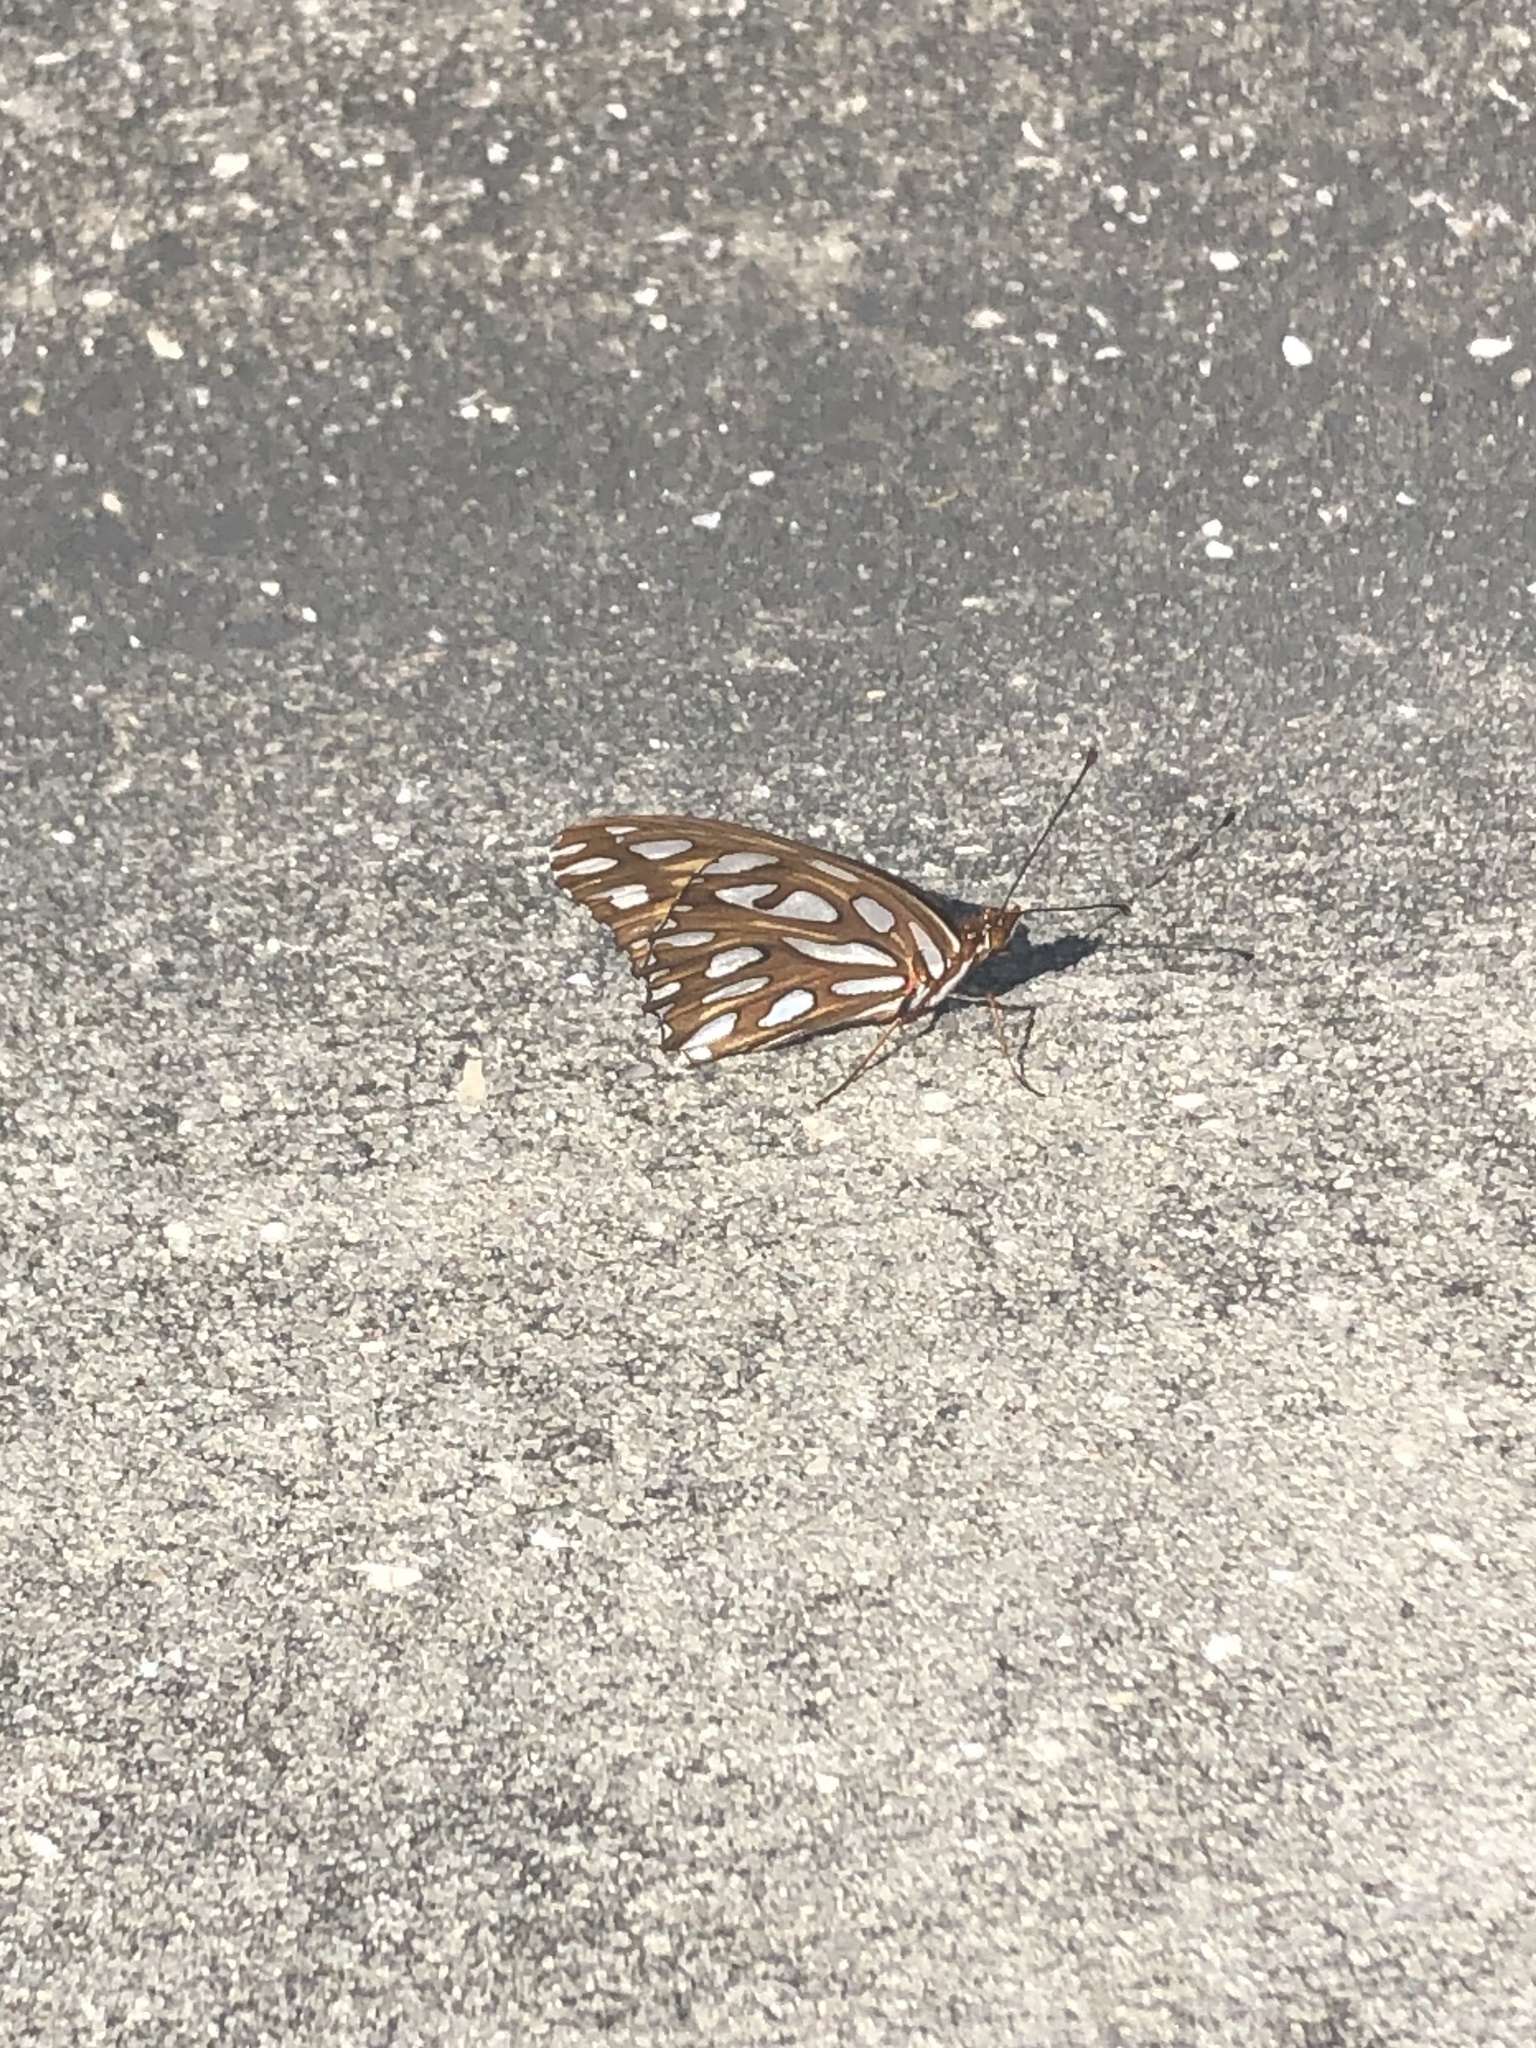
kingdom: Animalia
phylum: Arthropoda
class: Insecta
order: Lepidoptera
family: Nymphalidae
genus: Dione
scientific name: Dione vanillae
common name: Gulf fritillary
